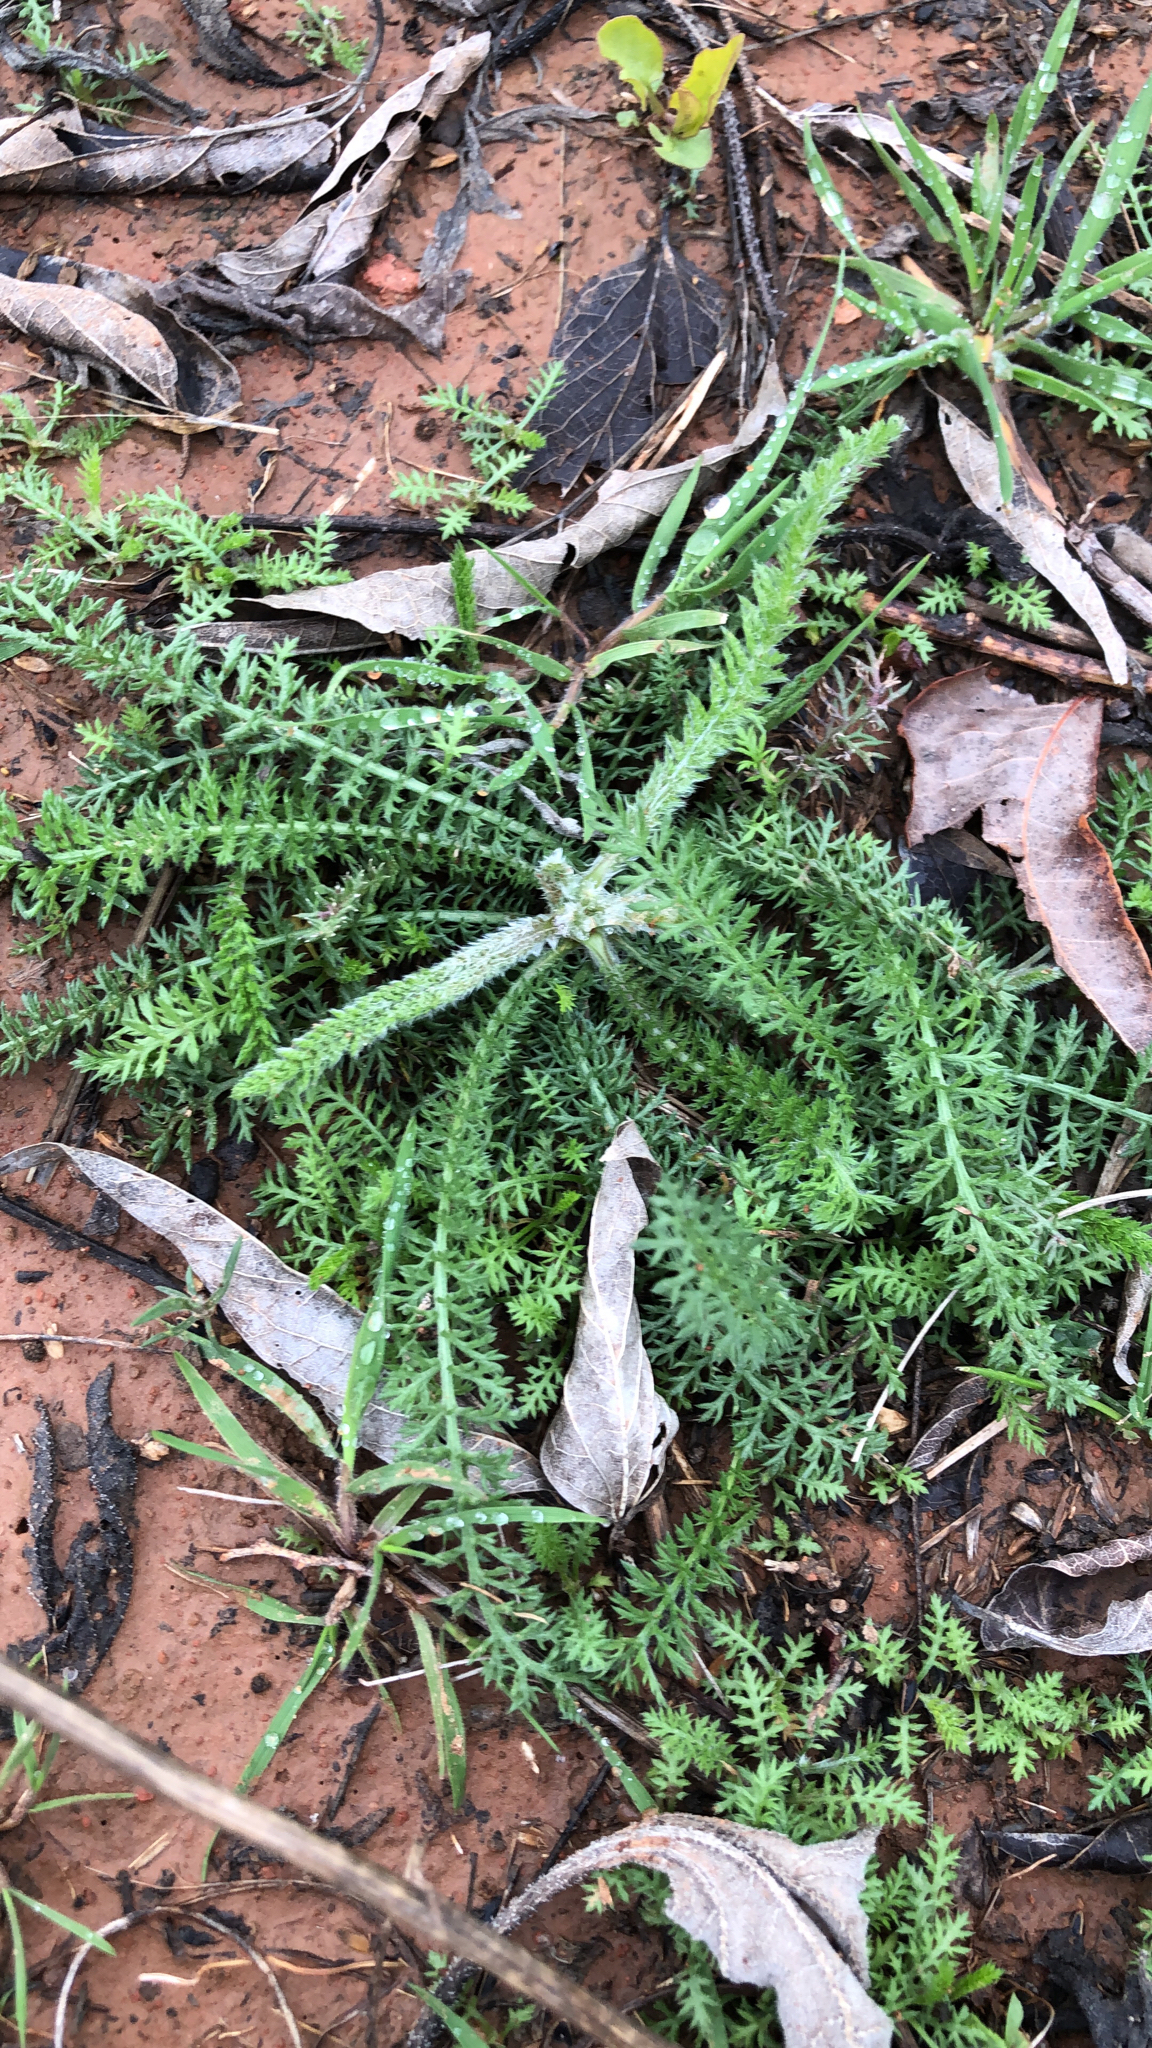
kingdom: Plantae
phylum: Tracheophyta
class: Magnoliopsida
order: Asterales
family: Asteraceae
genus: Achillea
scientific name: Achillea millefolium
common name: Yarrow
